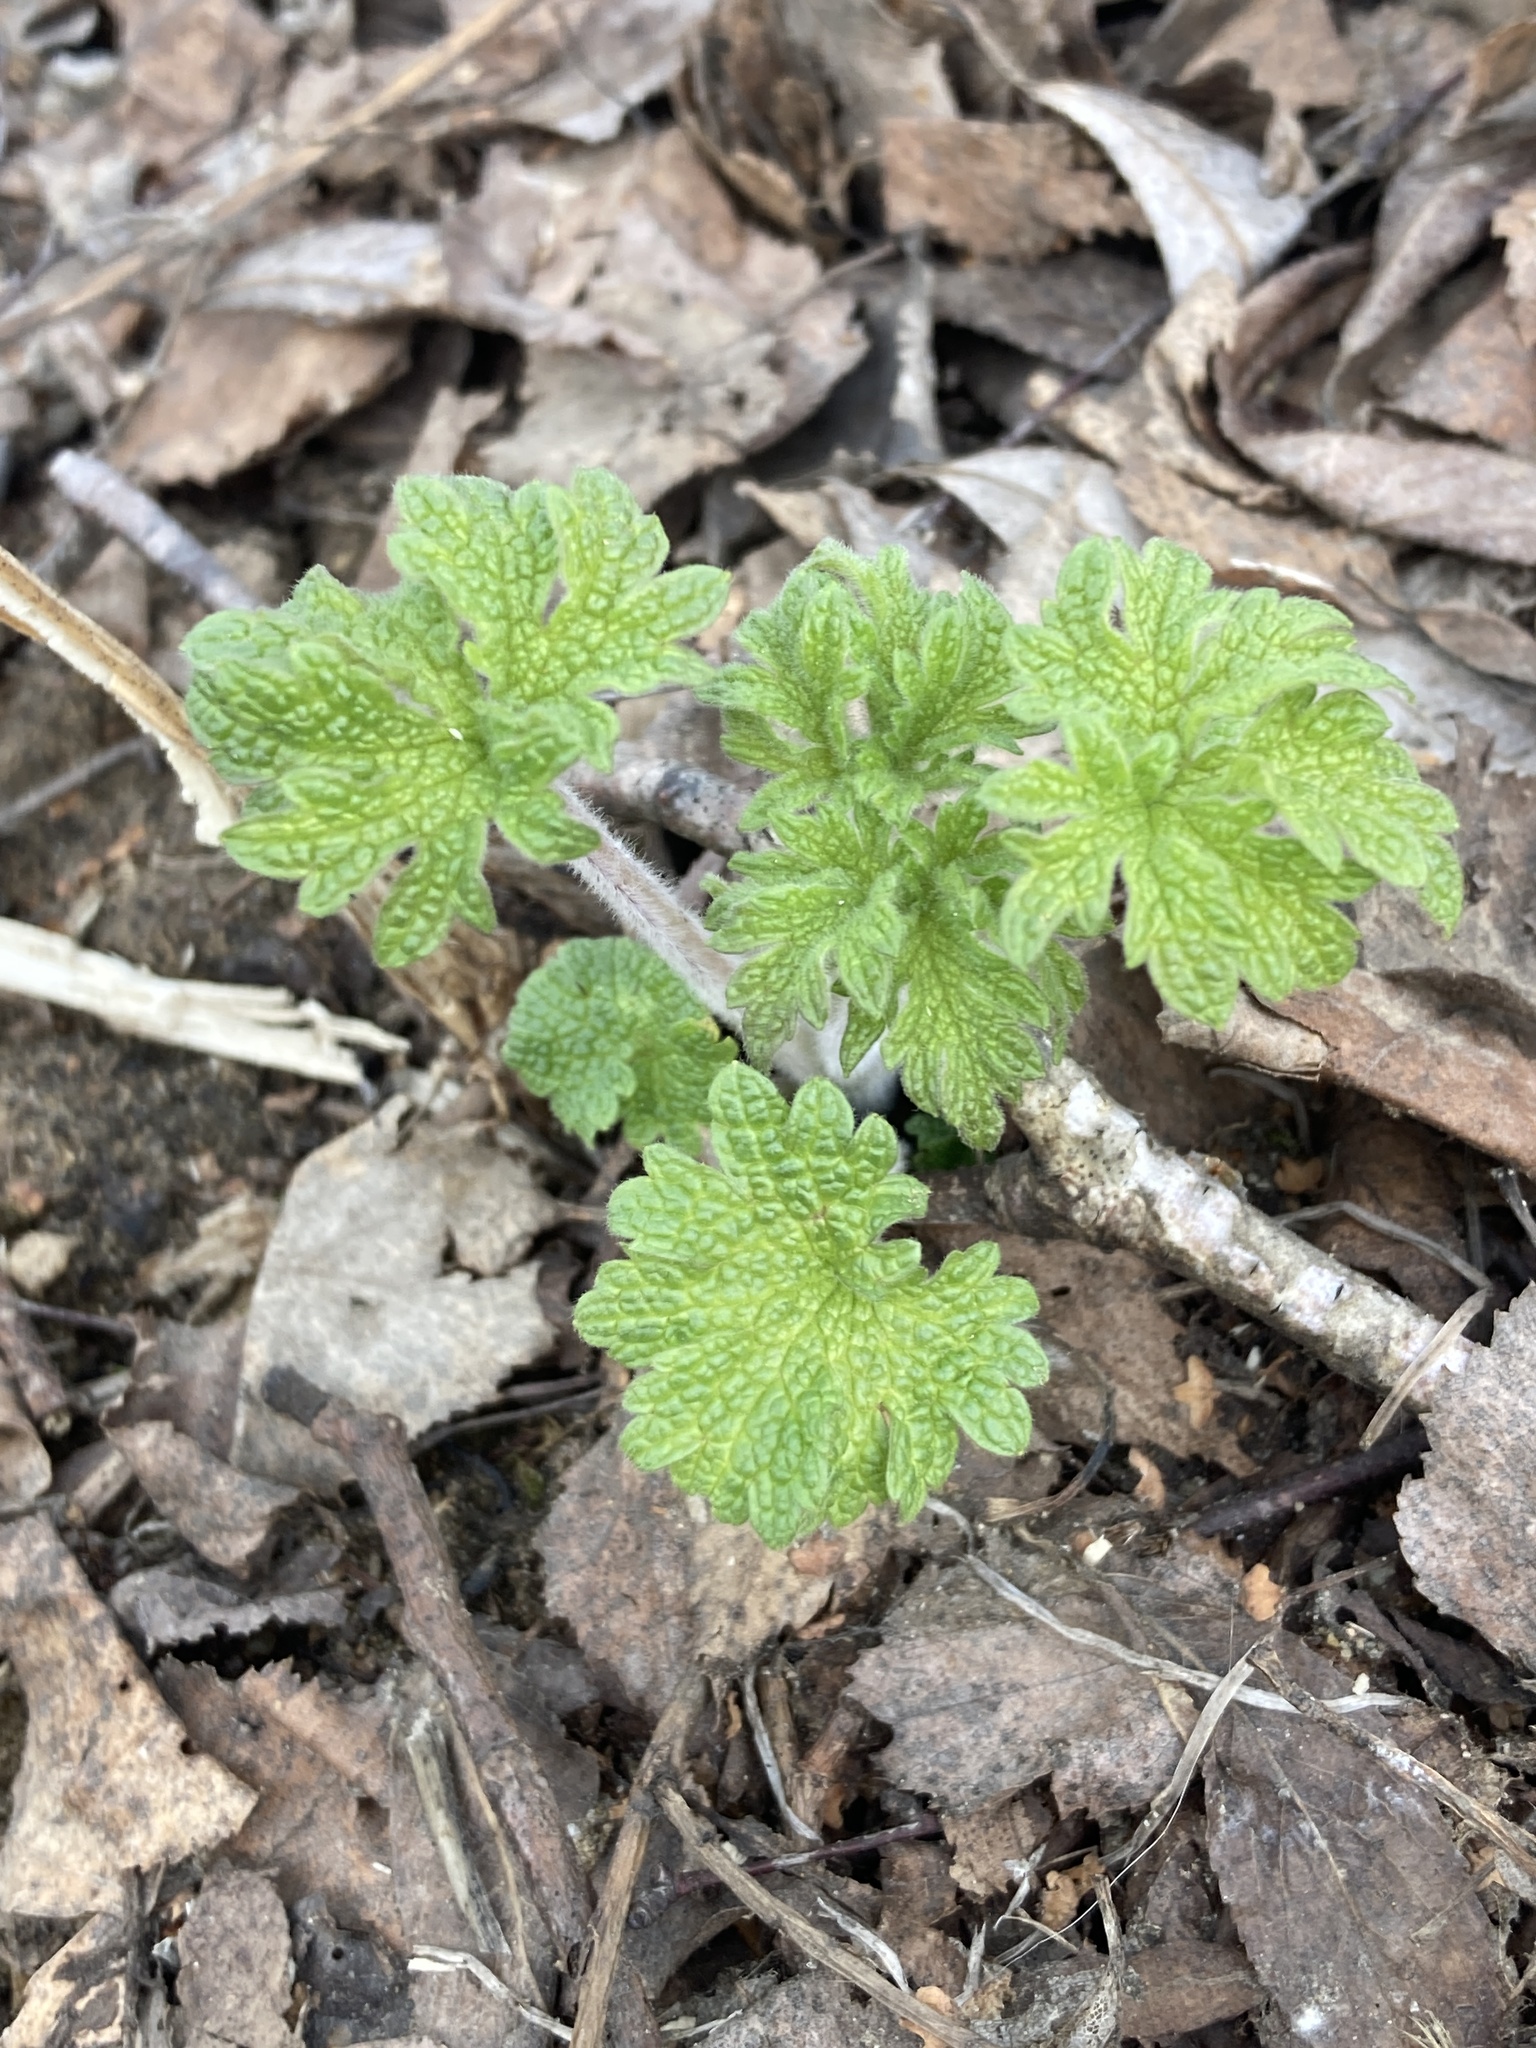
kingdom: Plantae
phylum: Tracheophyta
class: Magnoliopsida
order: Lamiales
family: Lamiaceae
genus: Leonurus
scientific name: Leonurus quinquelobatus
